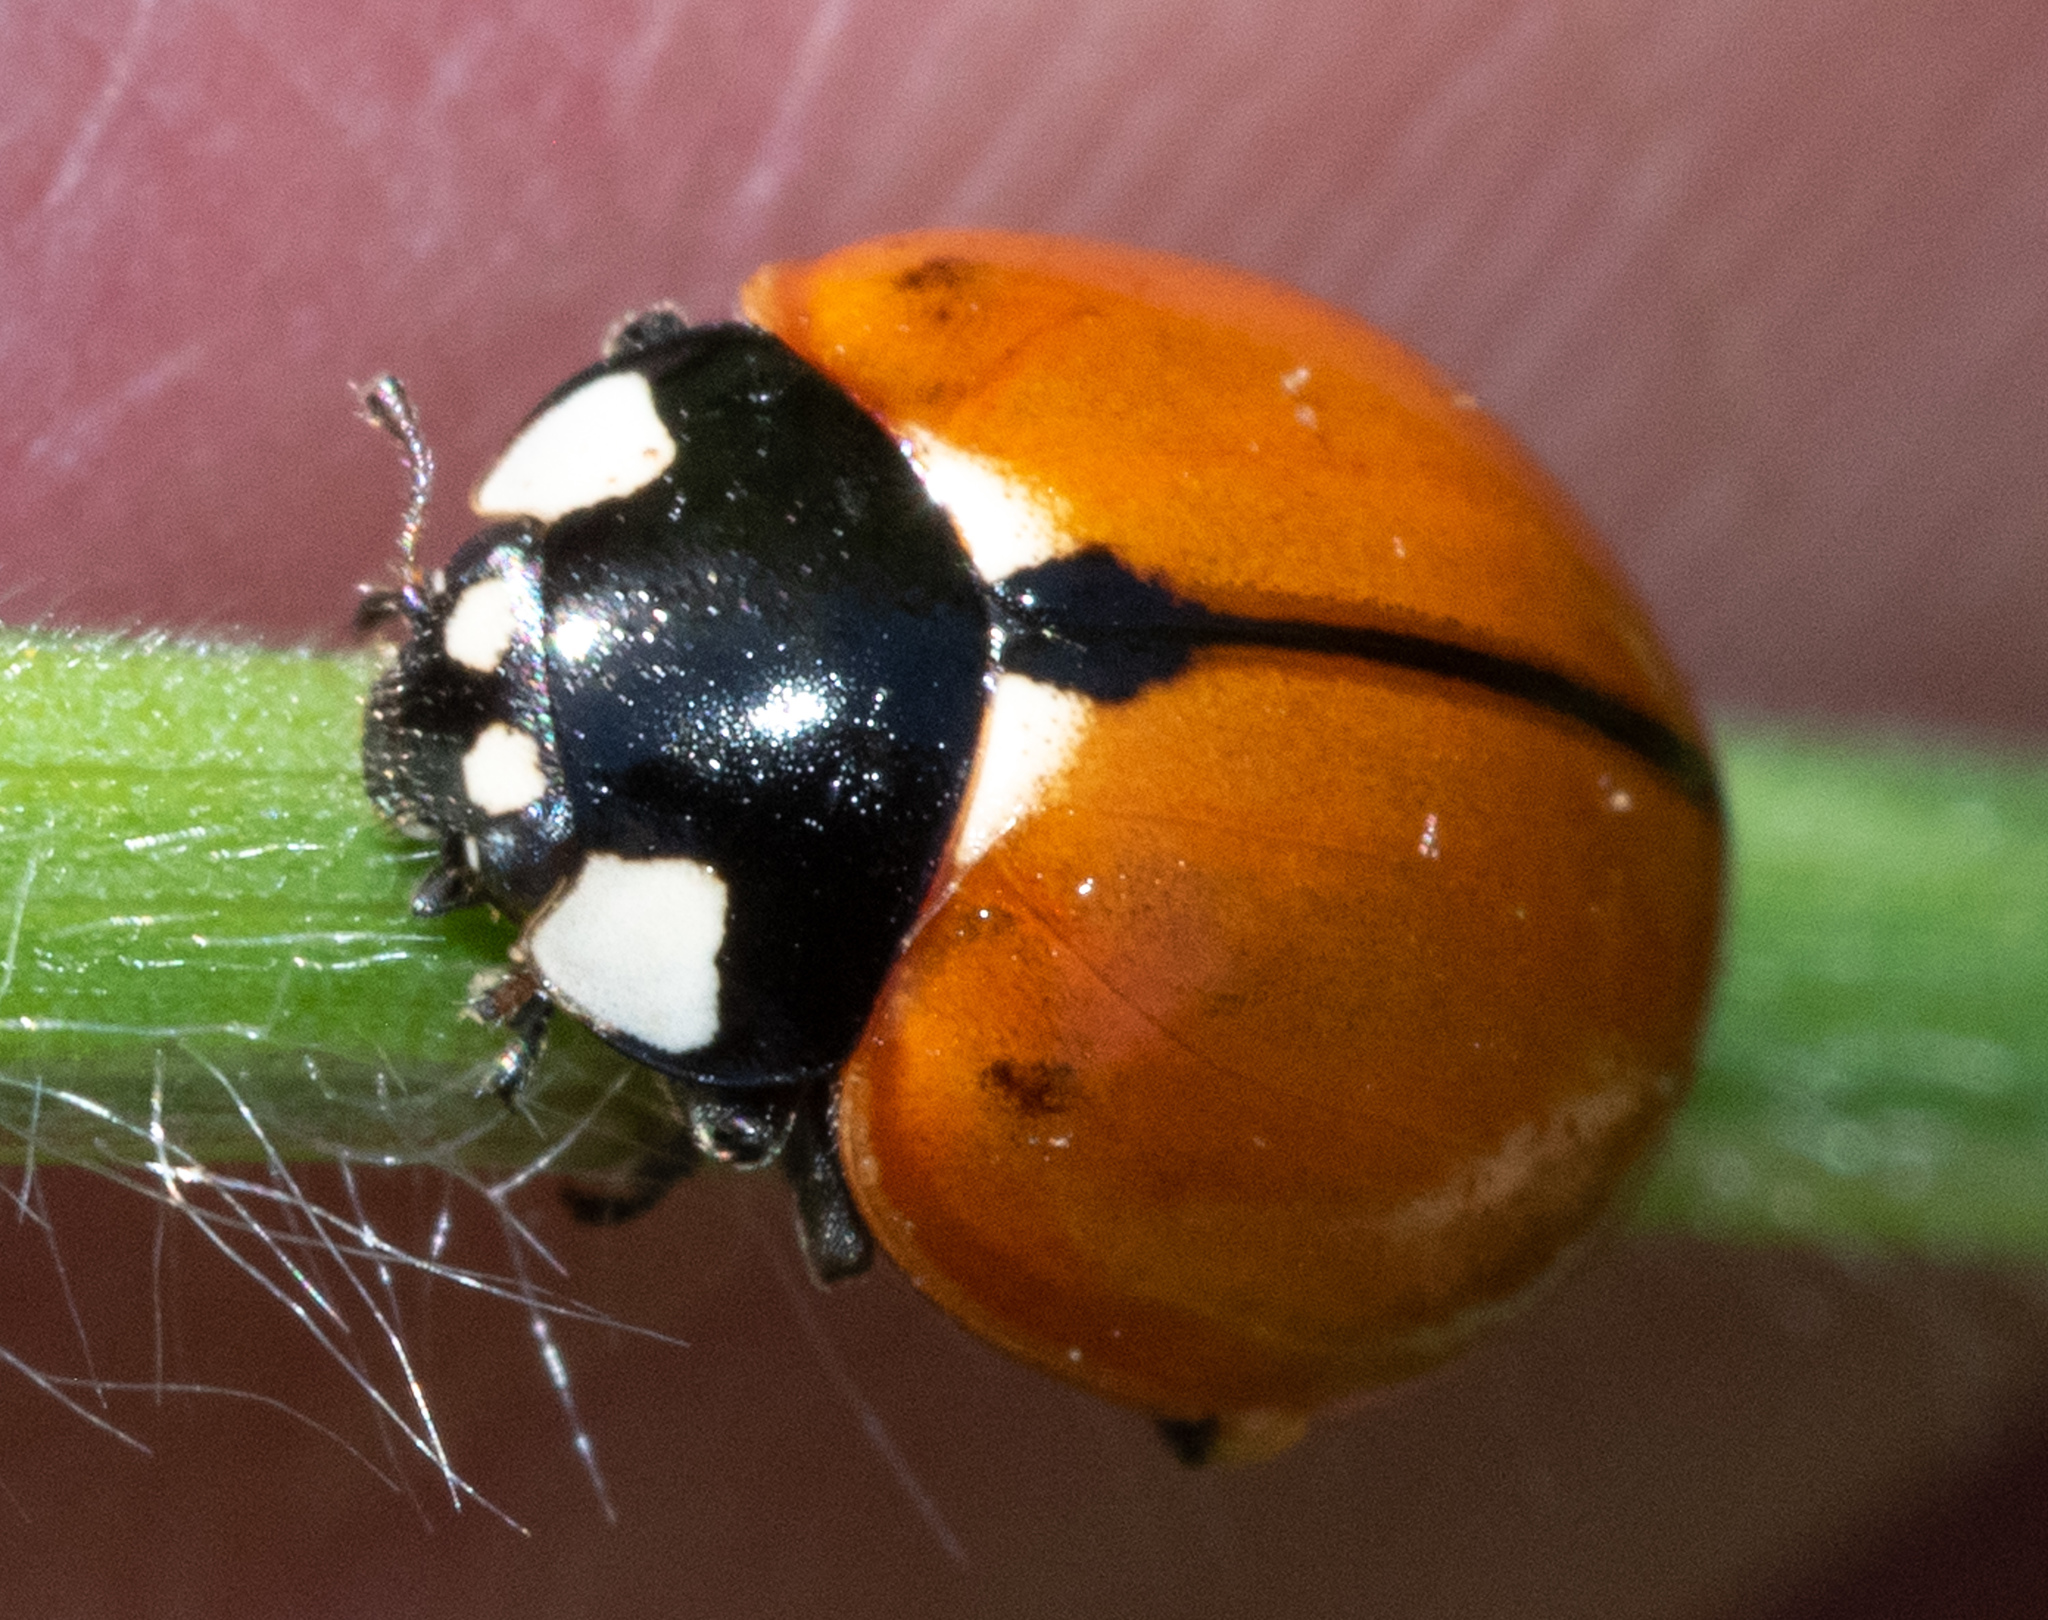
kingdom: Animalia
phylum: Arthropoda
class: Insecta
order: Coleoptera
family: Coccinellidae
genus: Coccinella
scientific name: Coccinella californica
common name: Lady beetle
